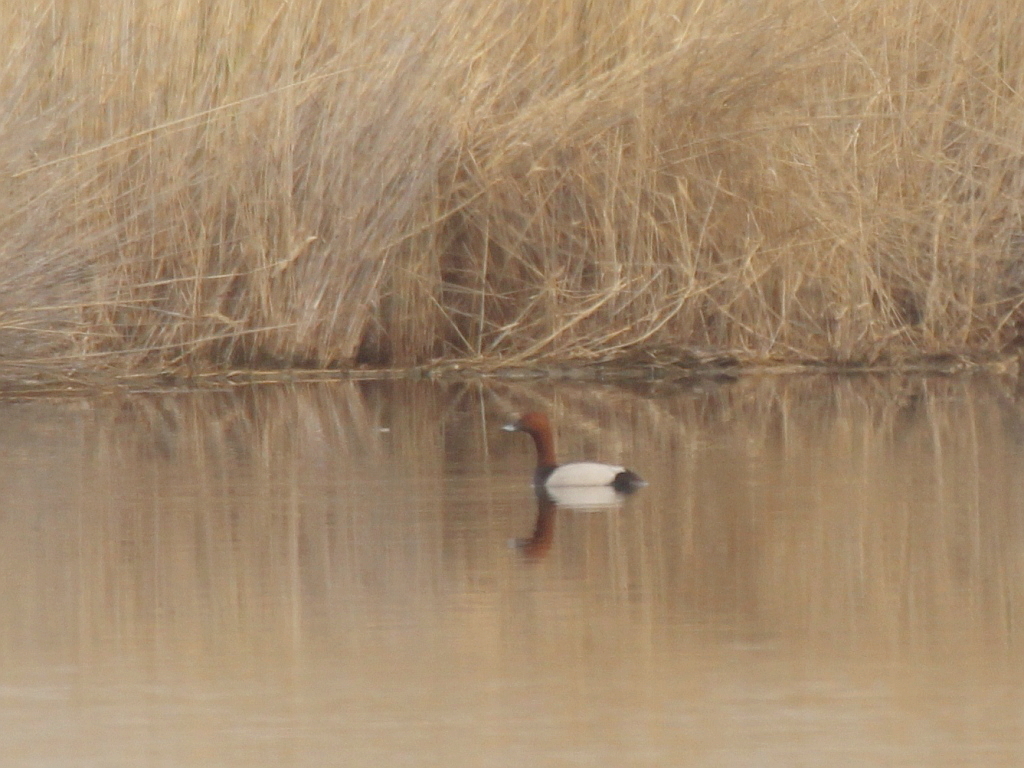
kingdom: Animalia
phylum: Chordata
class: Aves
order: Anseriformes
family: Anatidae
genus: Aythya
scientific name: Aythya ferina
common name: Common pochard
